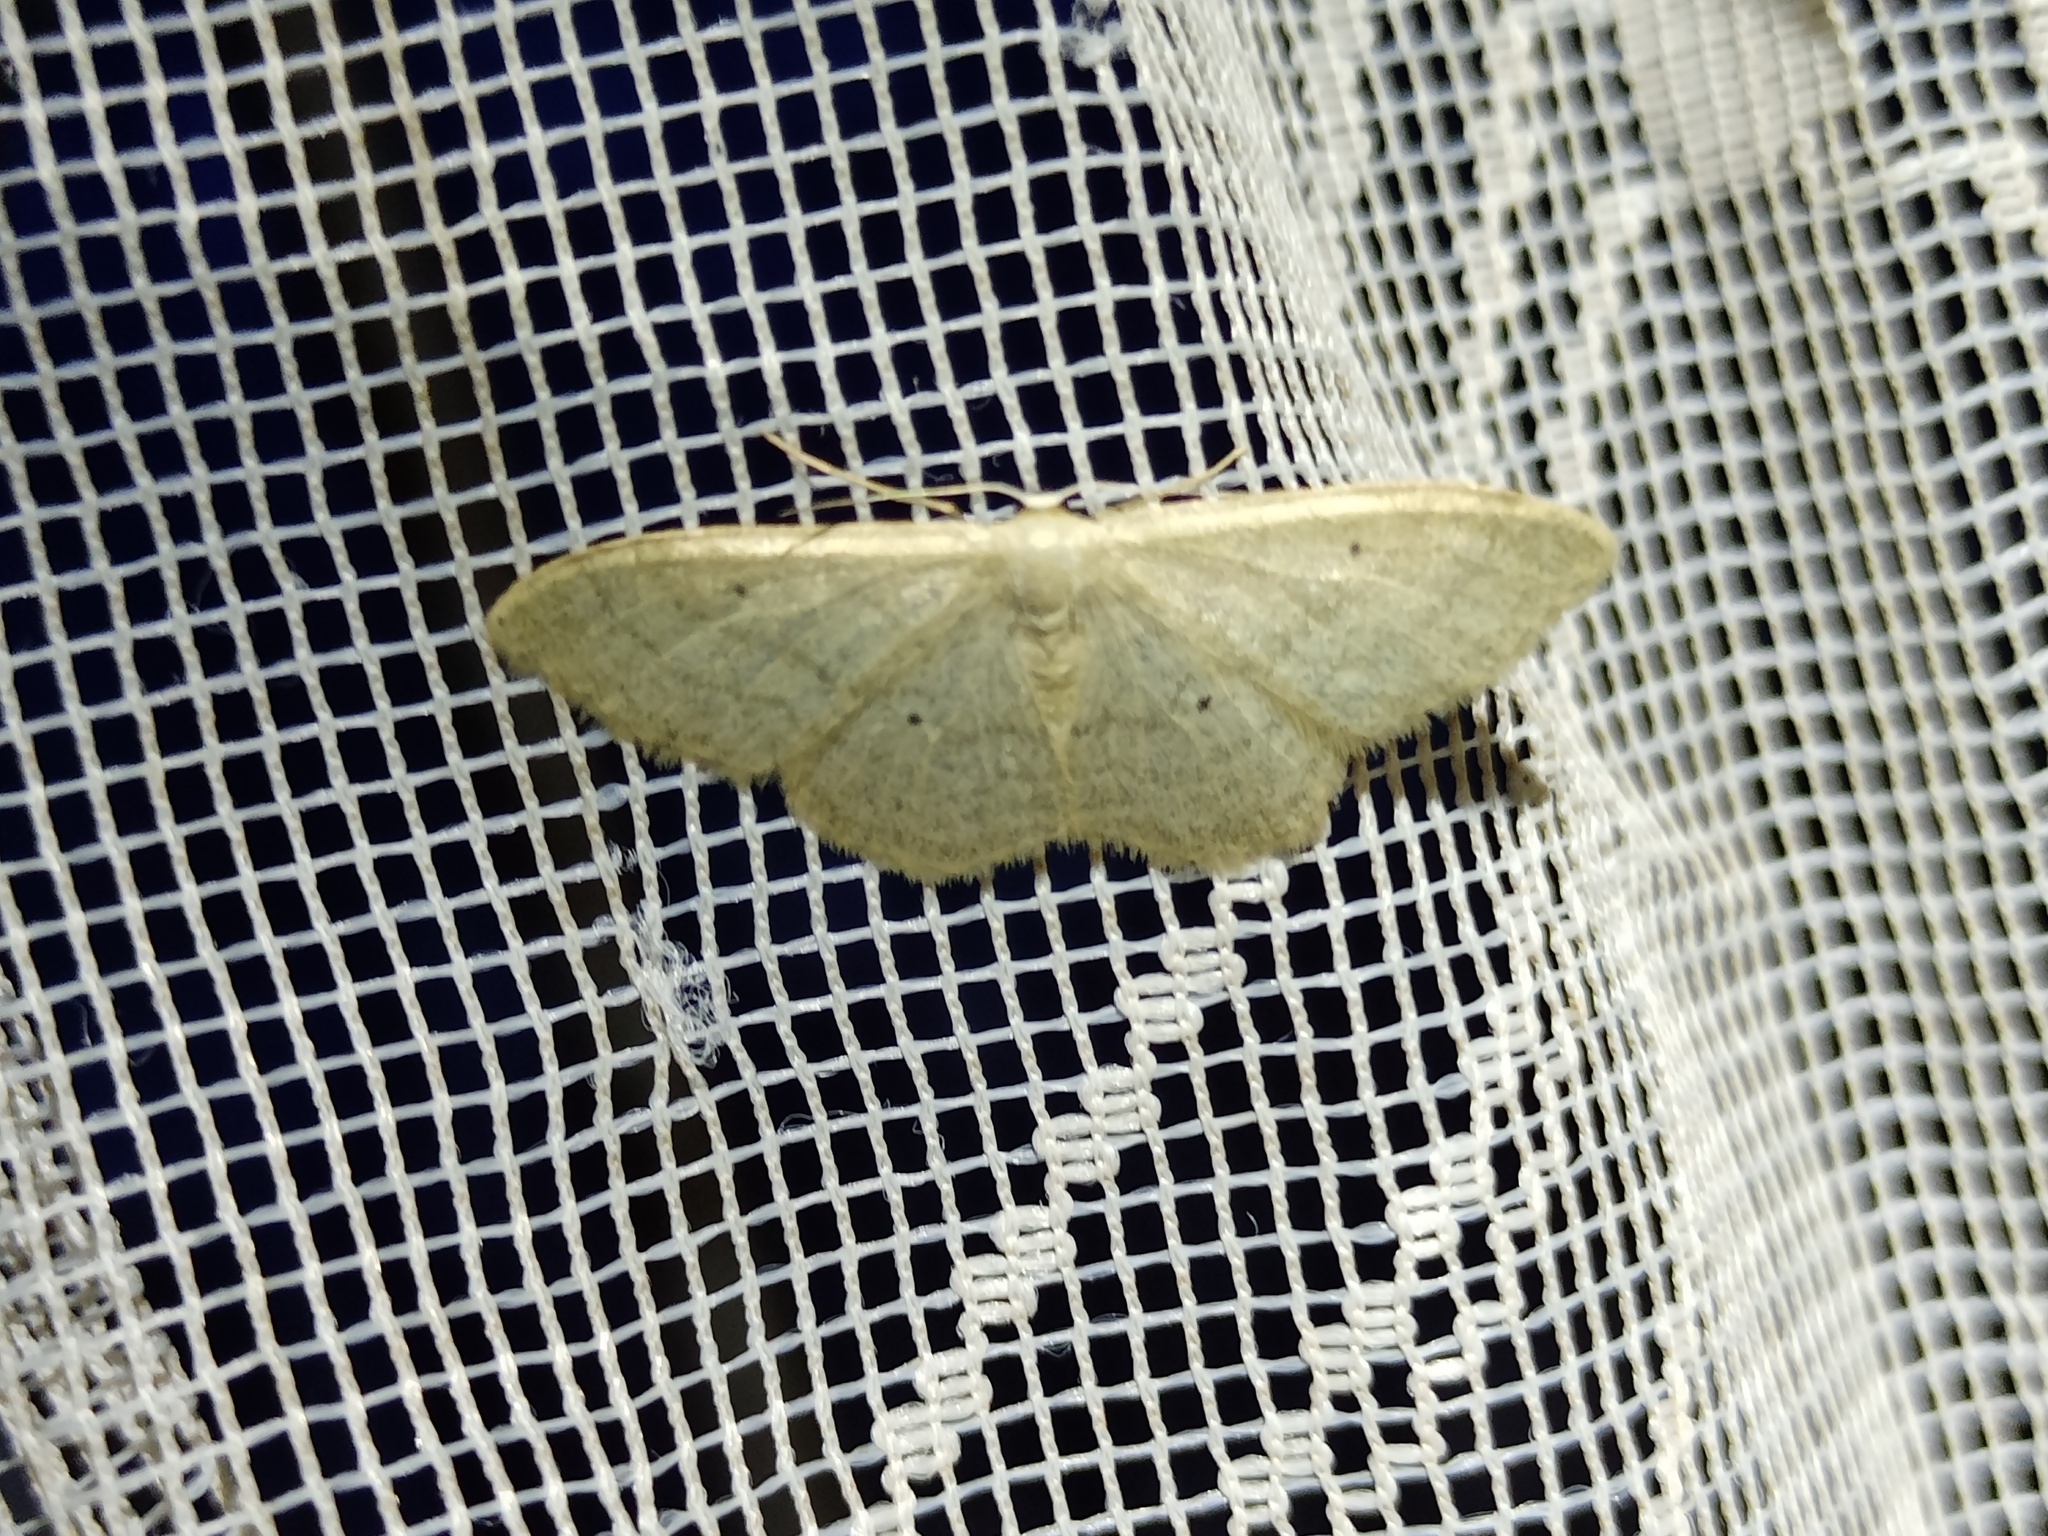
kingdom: Animalia
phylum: Arthropoda
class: Insecta
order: Lepidoptera
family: Geometridae
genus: Idaea
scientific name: Idaea straminata
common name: Plain wave
